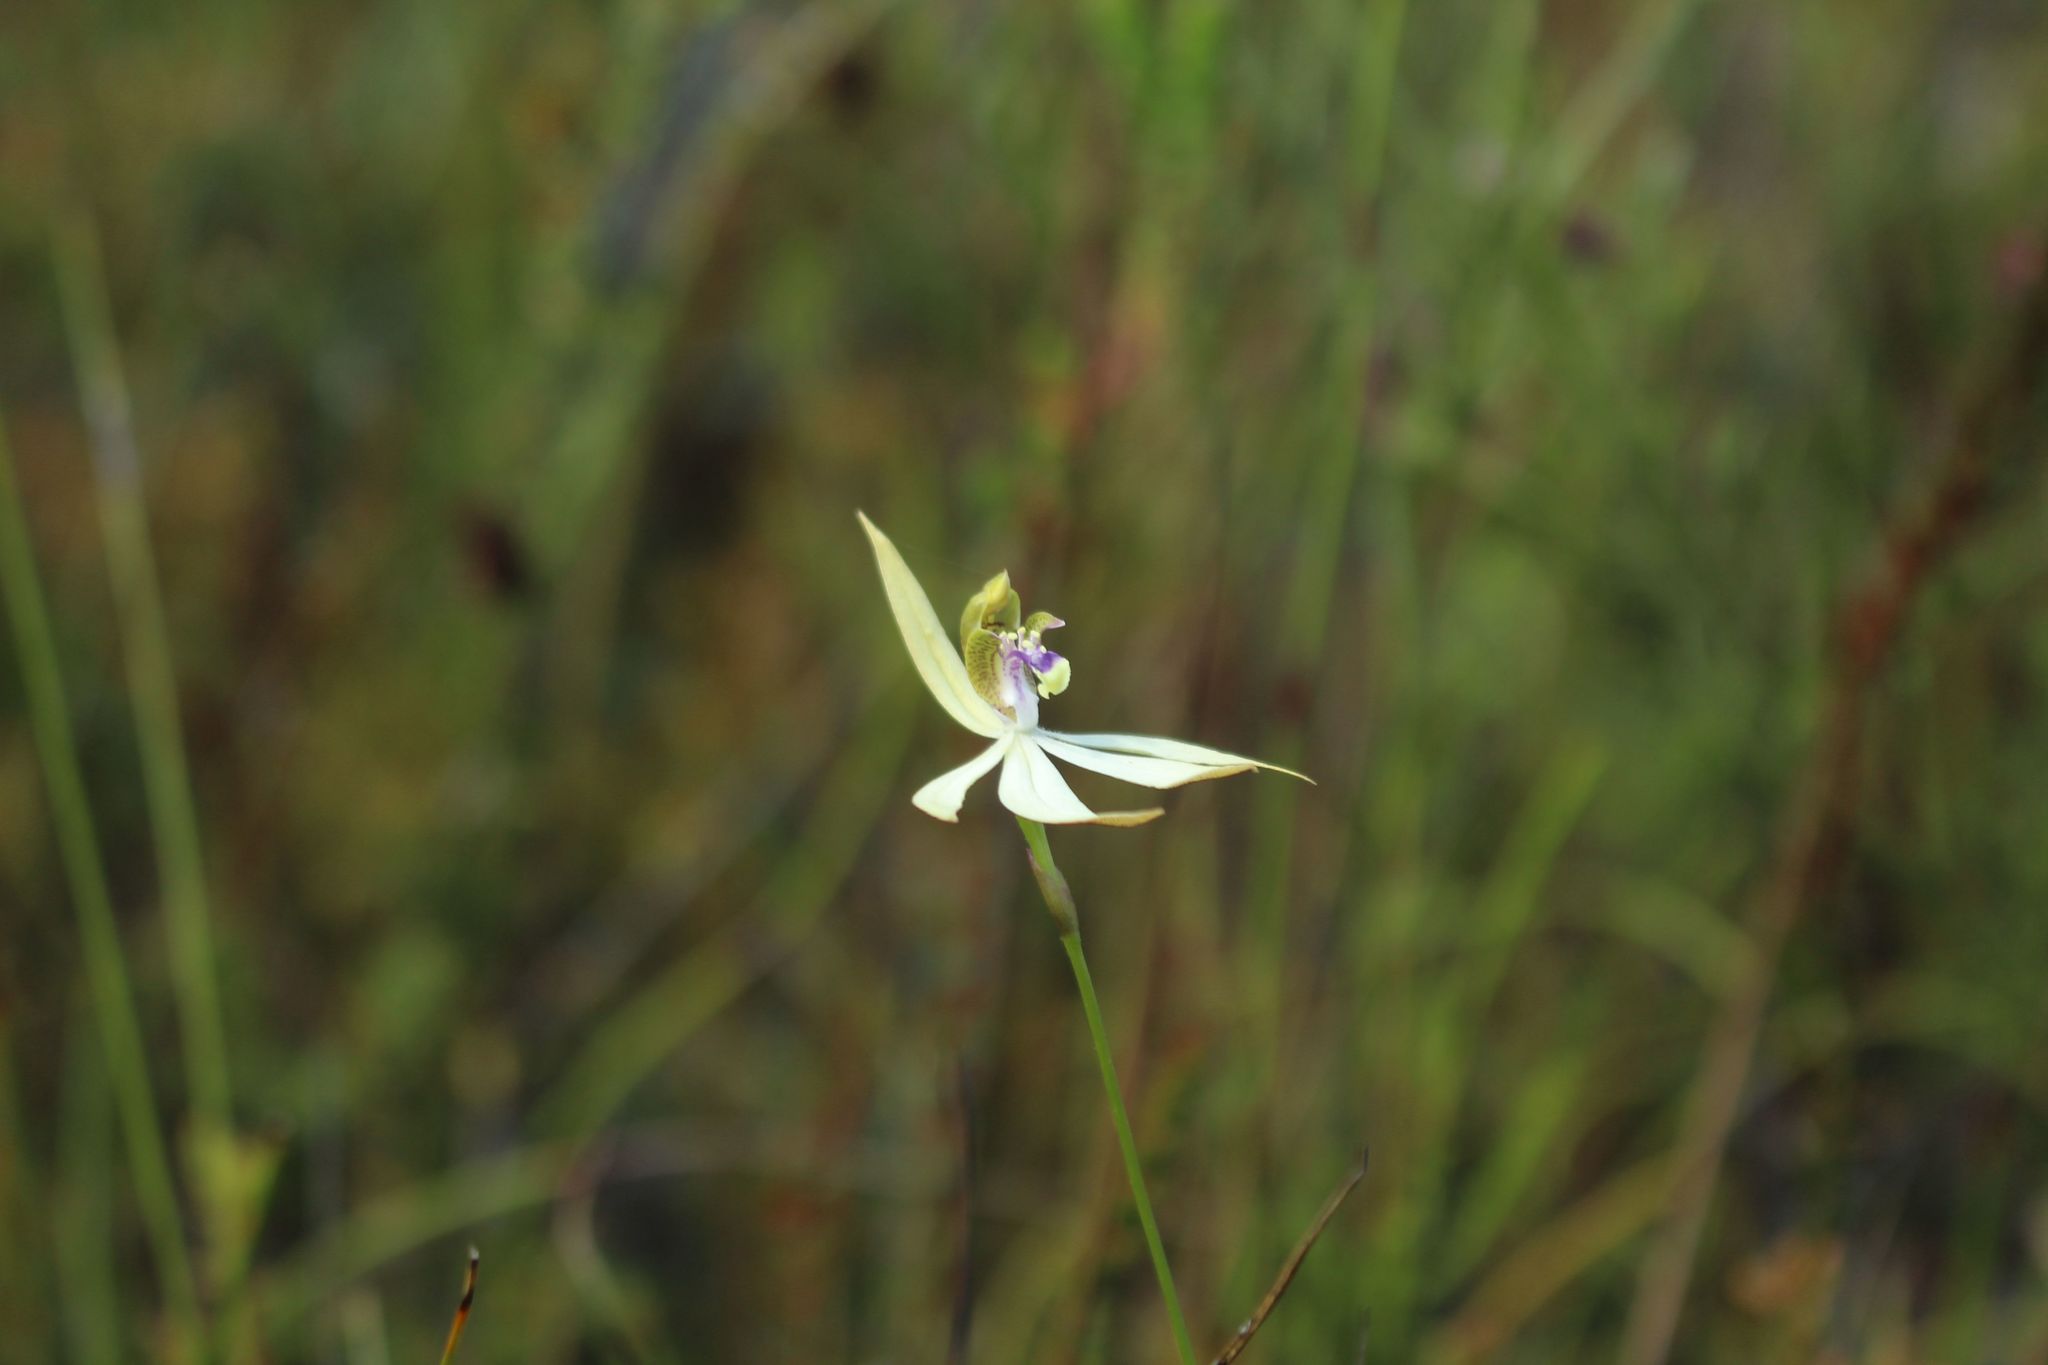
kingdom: Plantae
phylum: Tracheophyta
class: Liliopsida
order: Asparagales
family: Orchidaceae
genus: Praecoxanthus
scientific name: Praecoxanthus aphyllus
